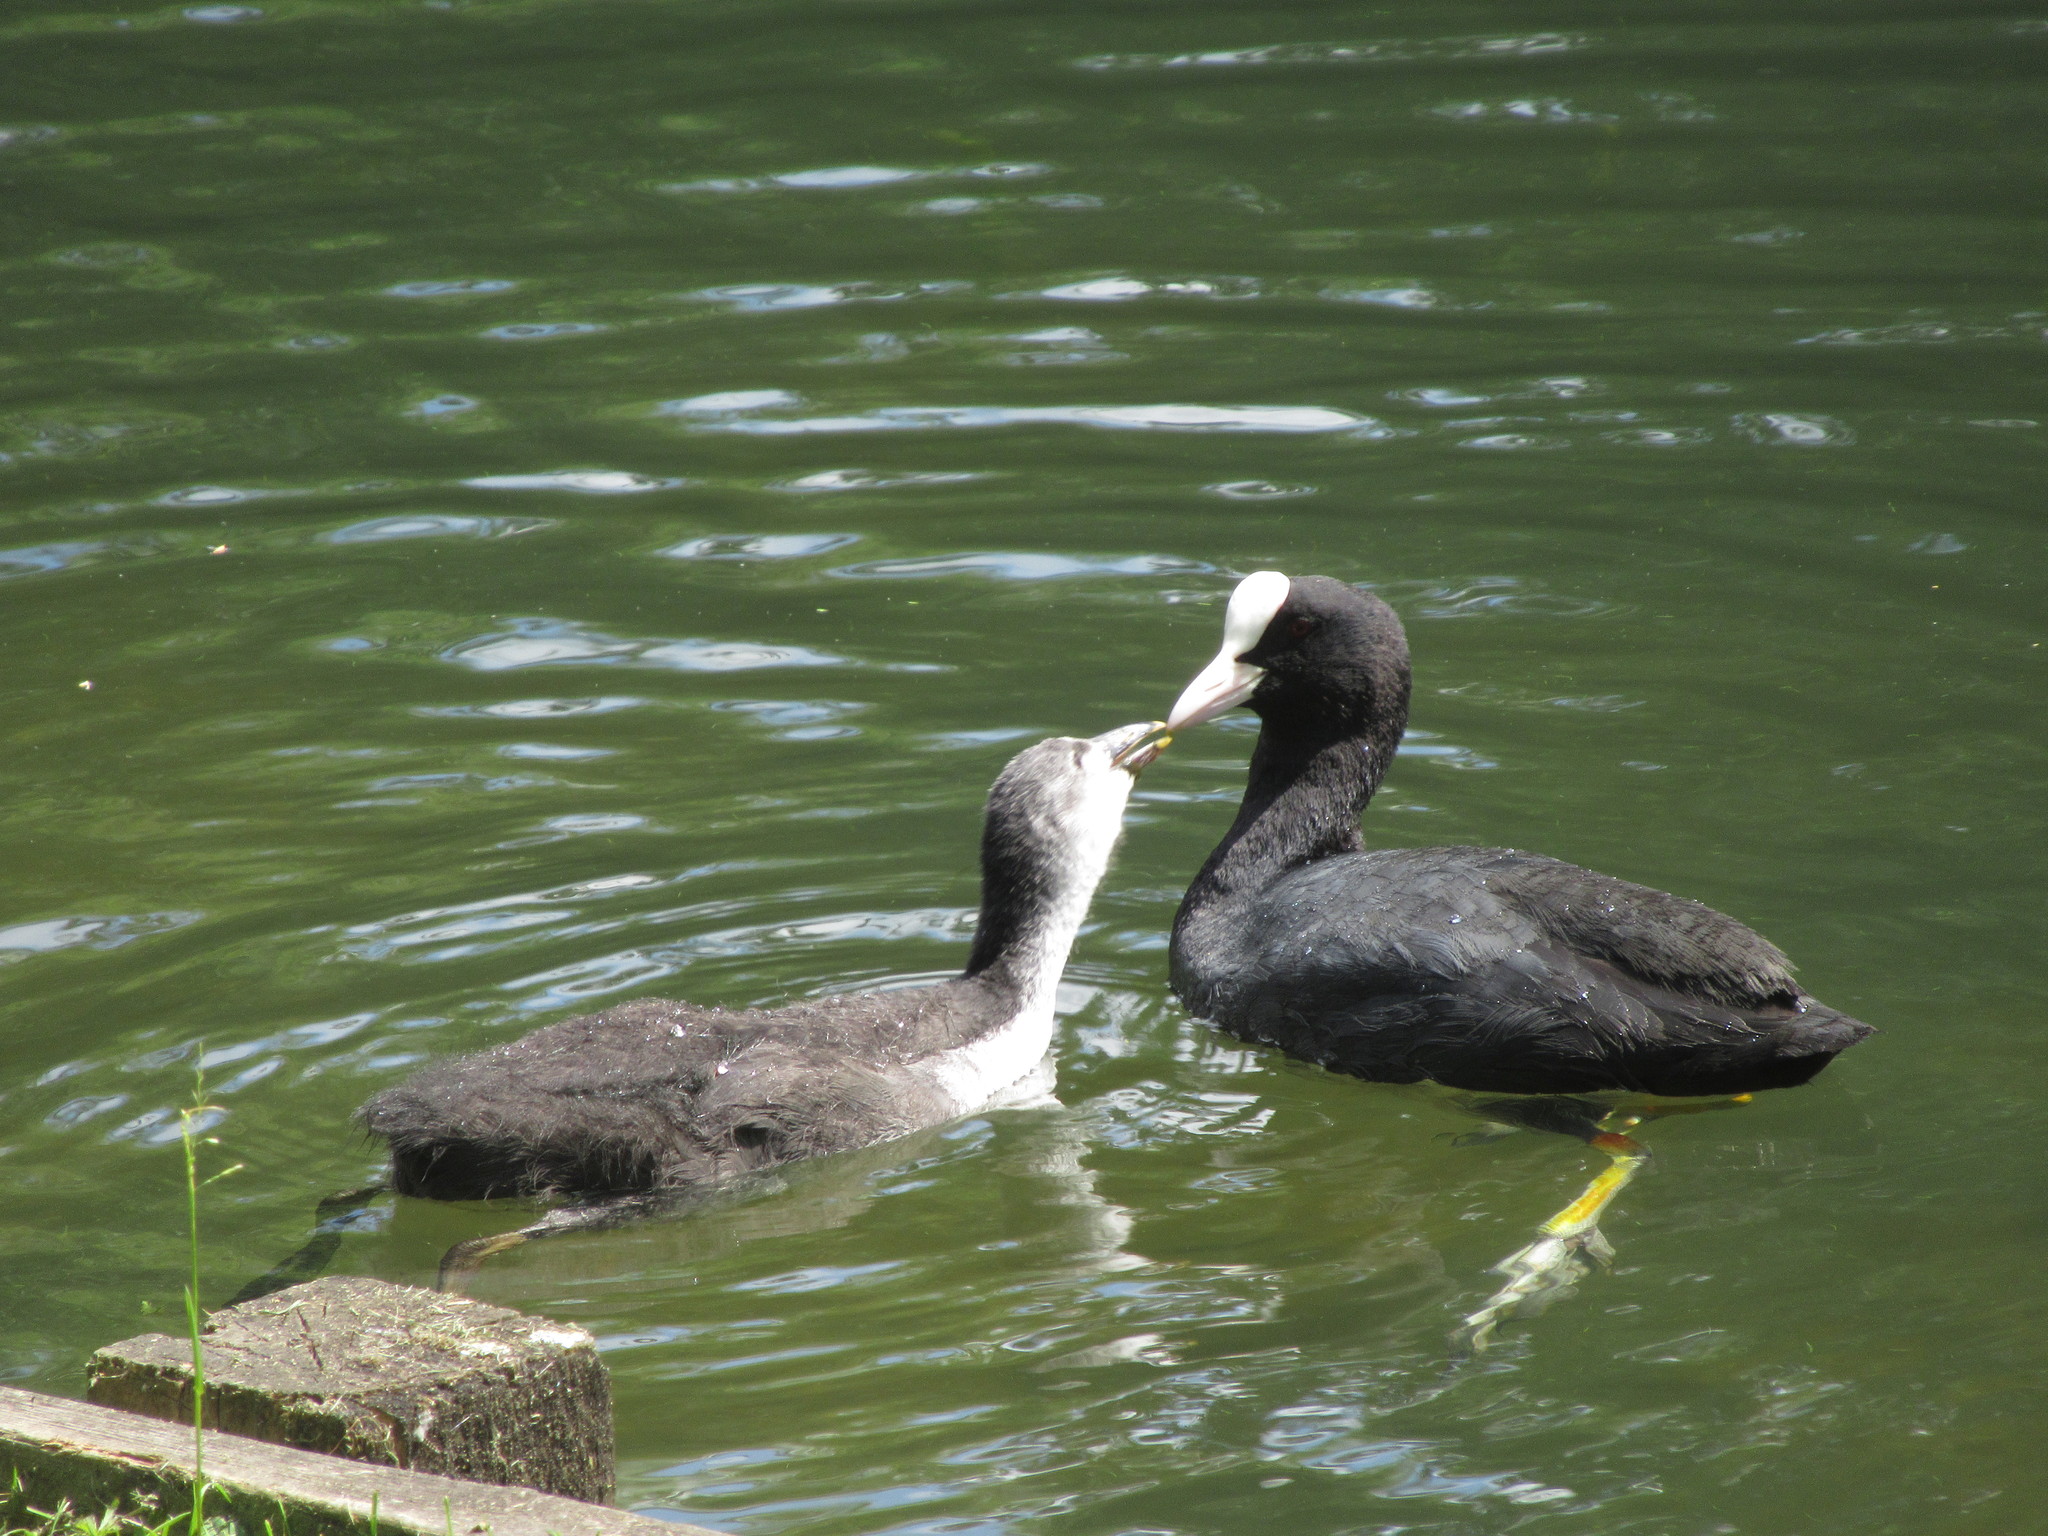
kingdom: Animalia
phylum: Chordata
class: Aves
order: Gruiformes
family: Rallidae
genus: Fulica
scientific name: Fulica atra
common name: Eurasian coot
